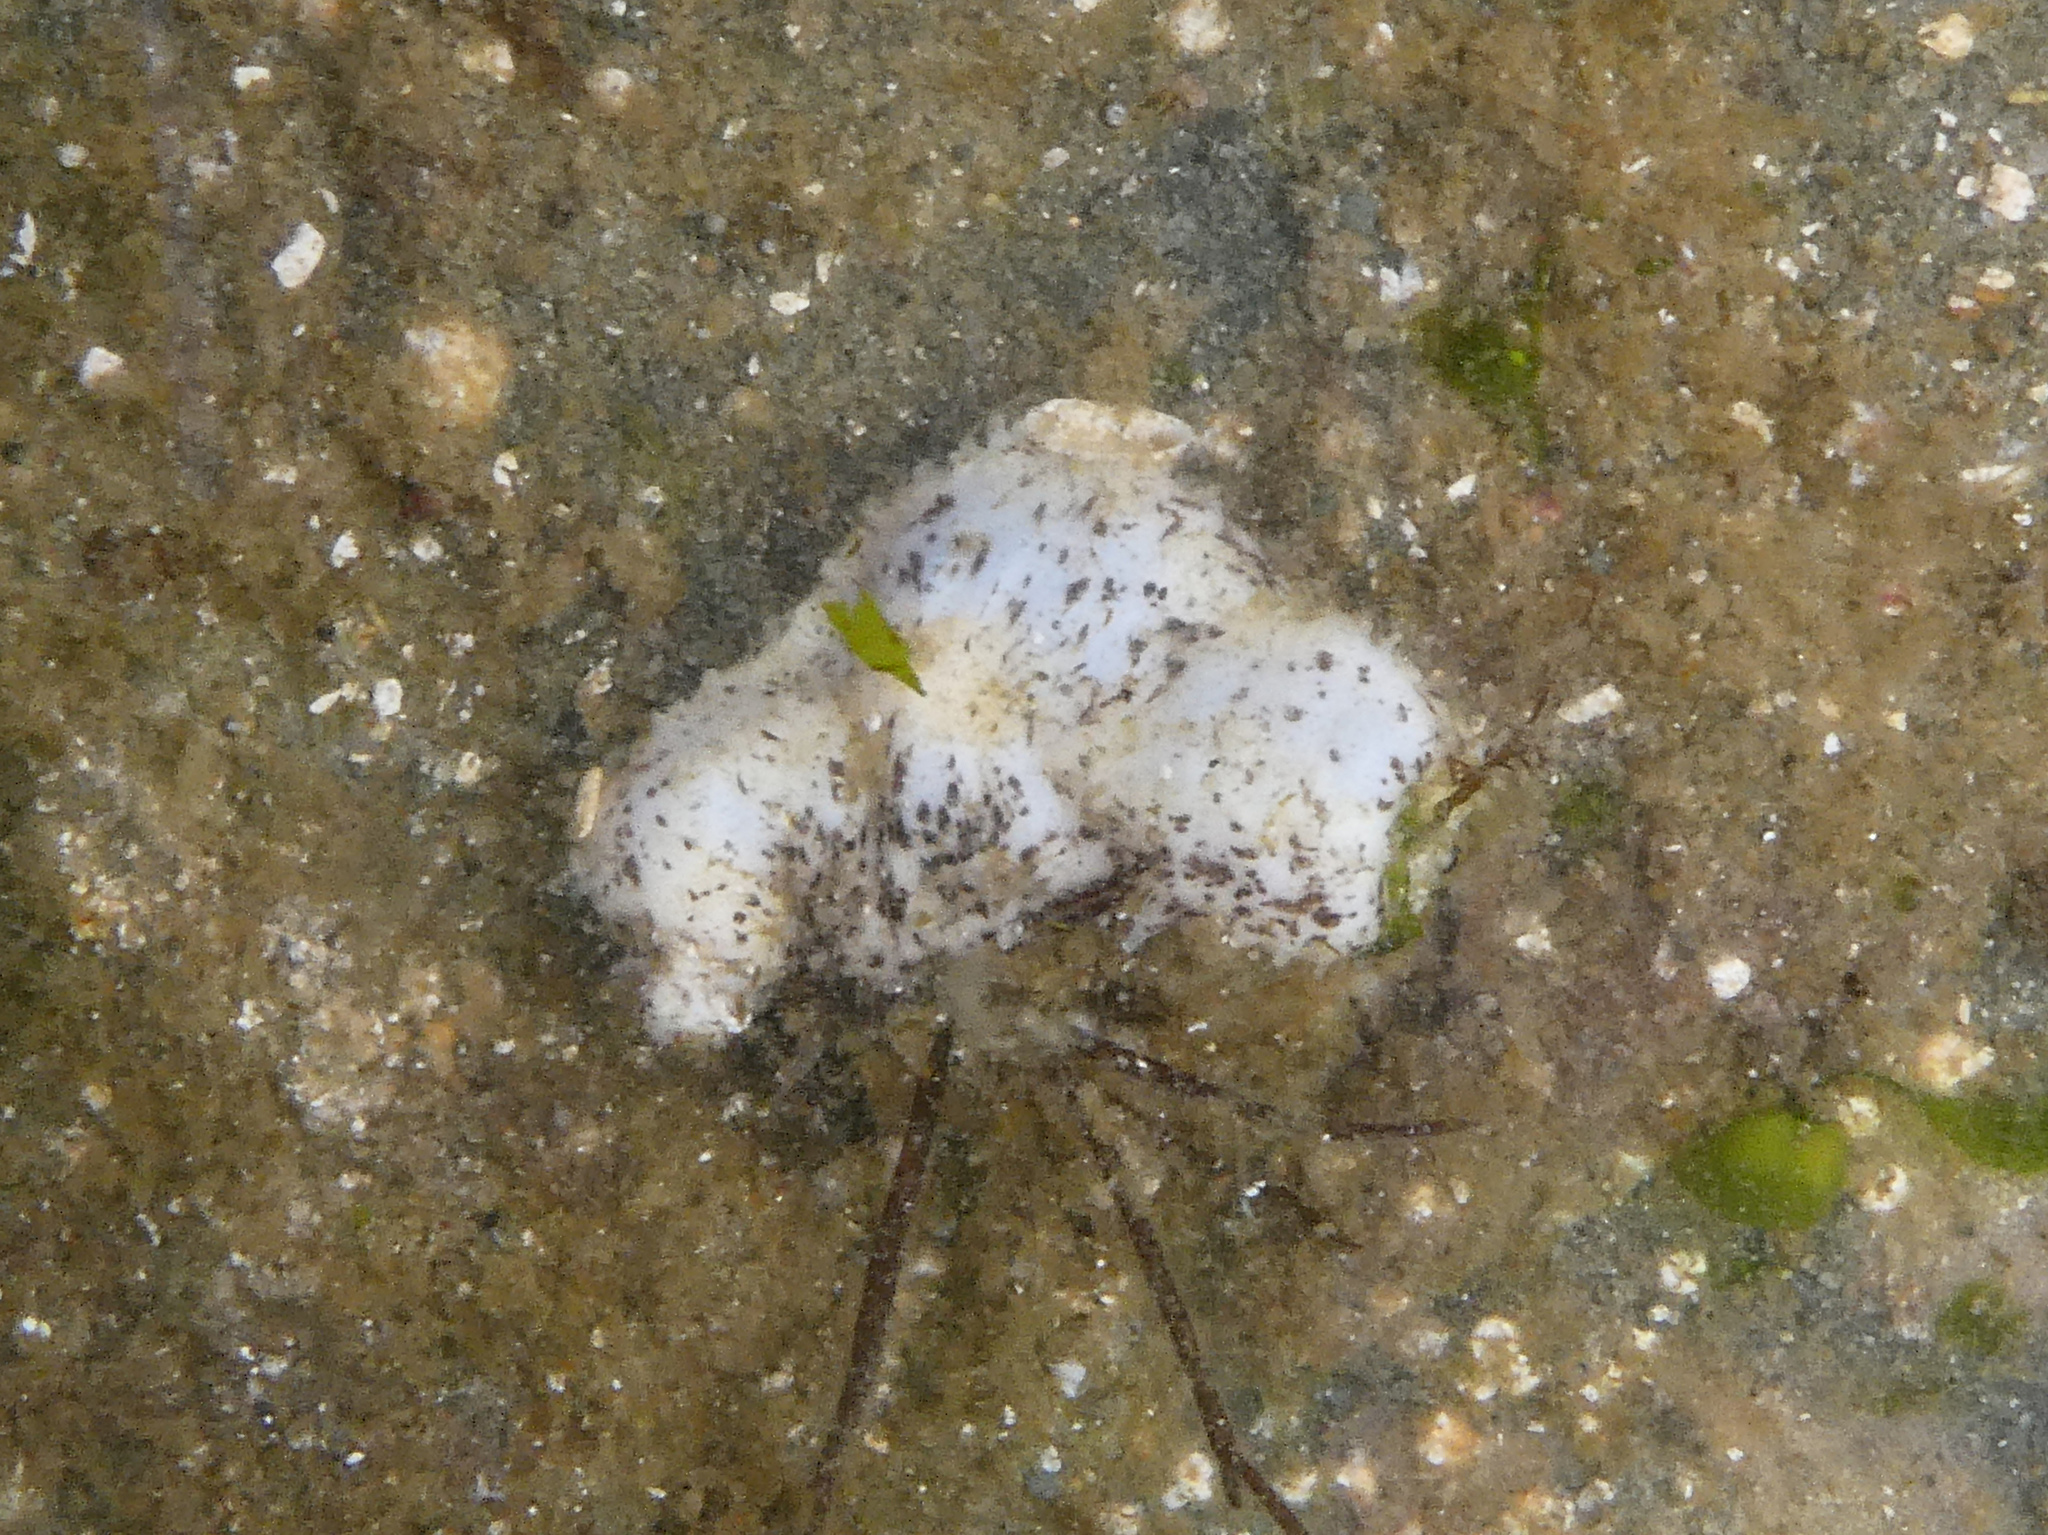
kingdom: Animalia
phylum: Echinodermata
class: Holothuroidea
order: Dendrochirotida
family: Cucumariidae
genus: Cucumaria
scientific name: Cucumaria piperata
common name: Peppered sea cucumber
